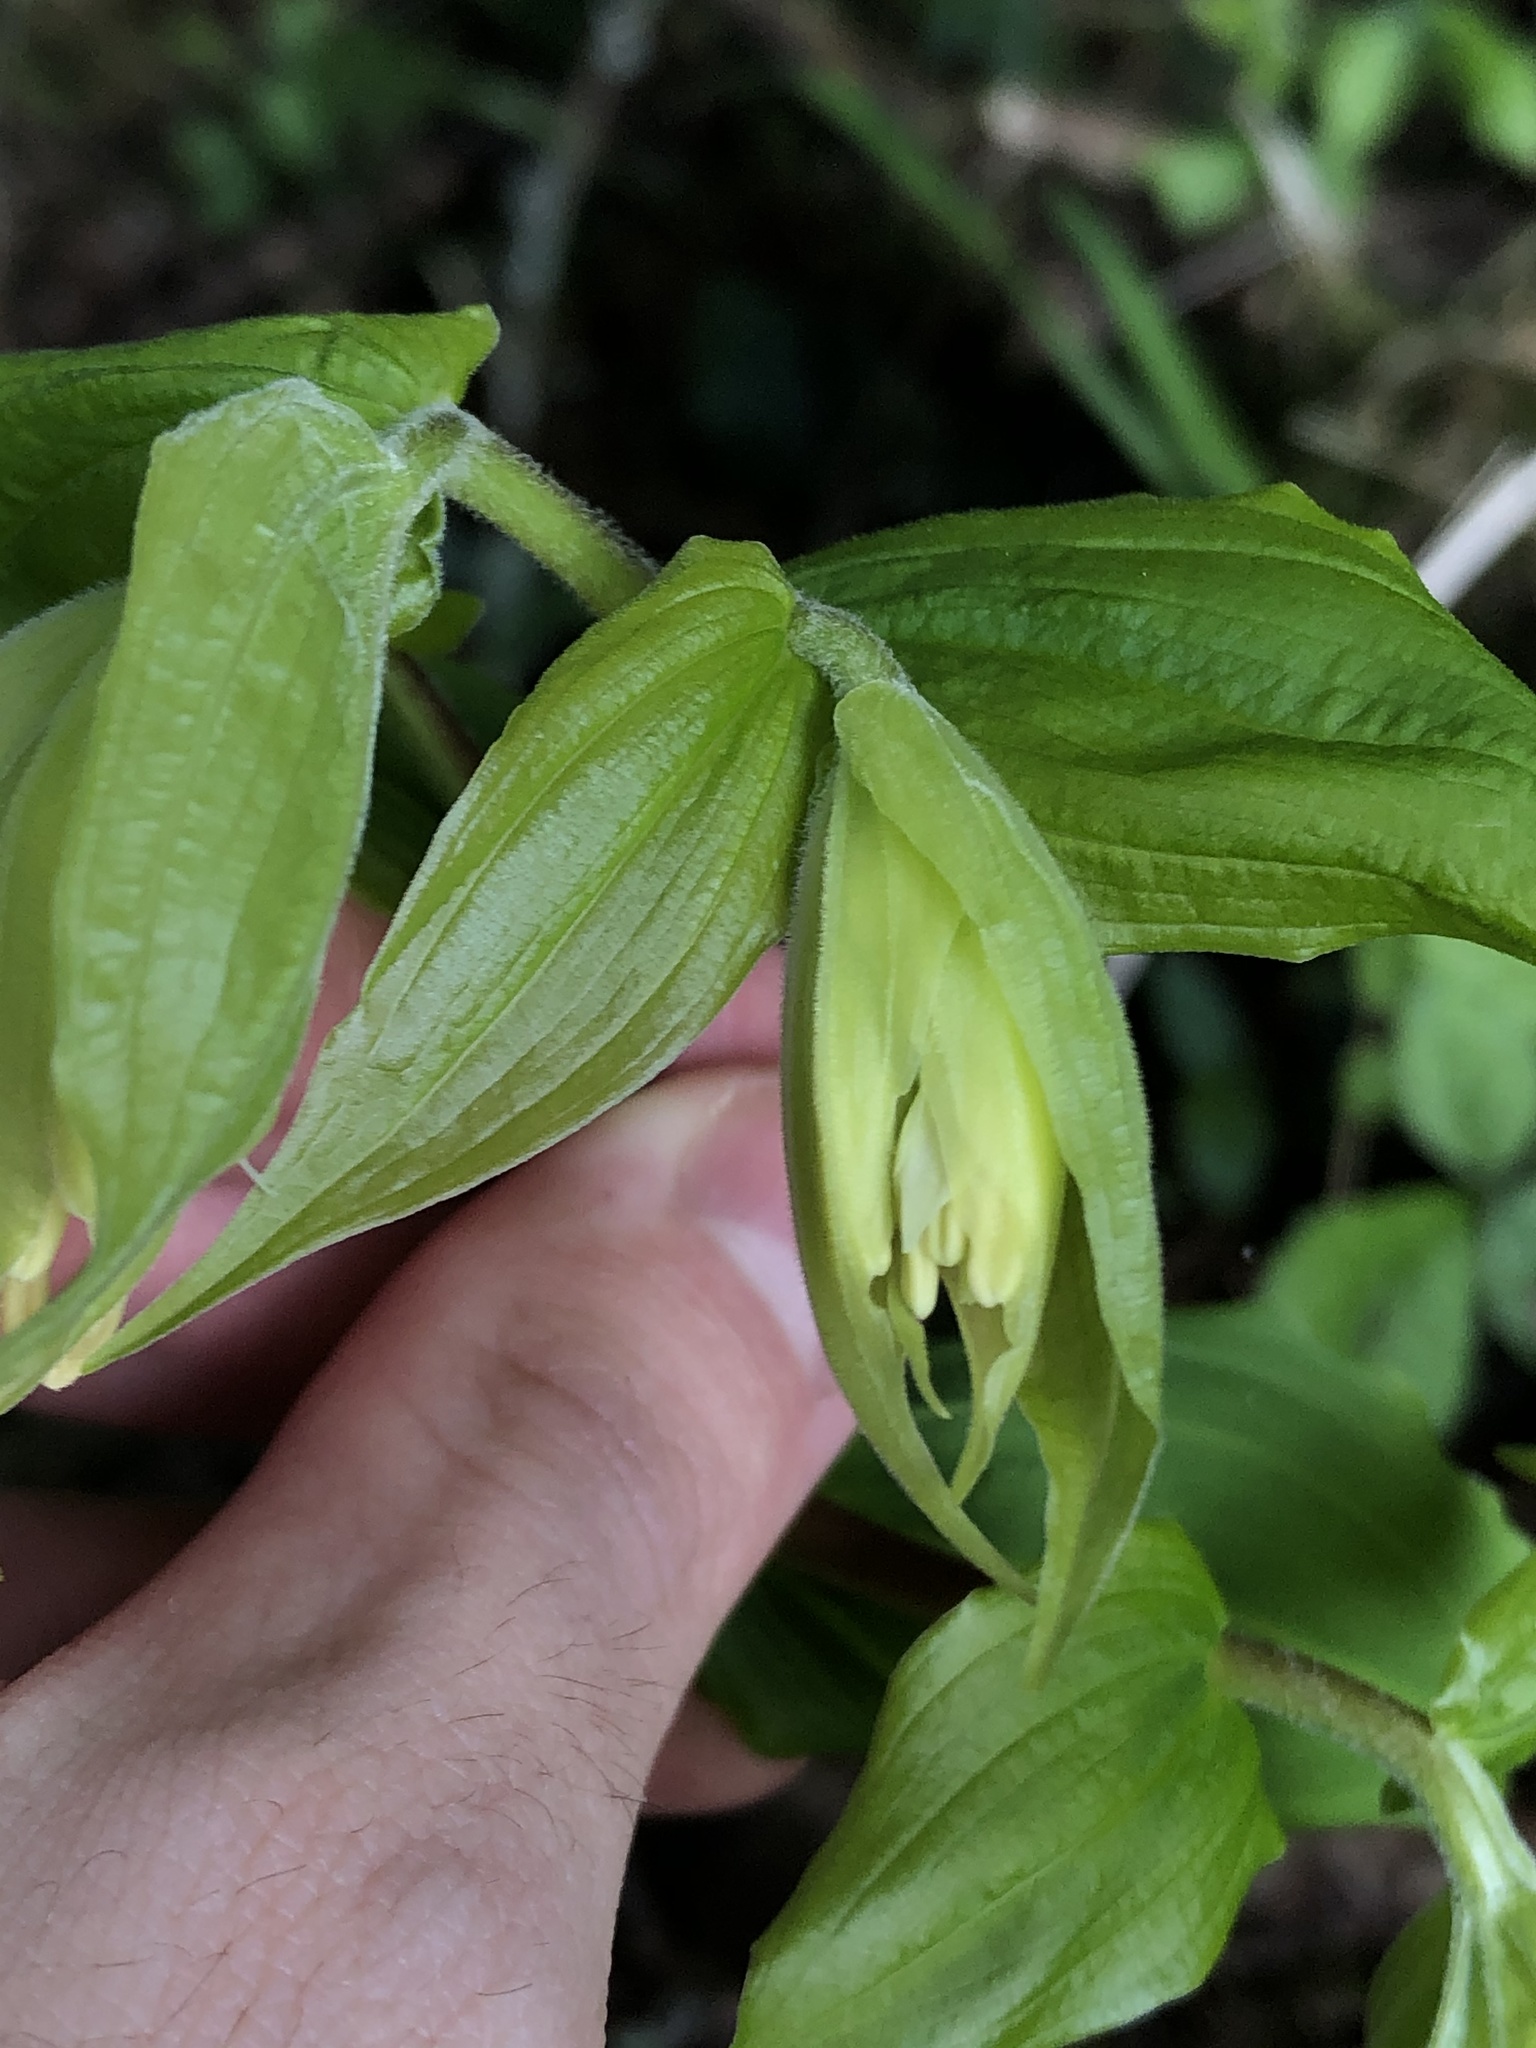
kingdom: Plantae
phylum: Tracheophyta
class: Liliopsida
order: Liliales
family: Liliaceae
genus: Prosartes
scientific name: Prosartes hookeri
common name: Fairy-bells
